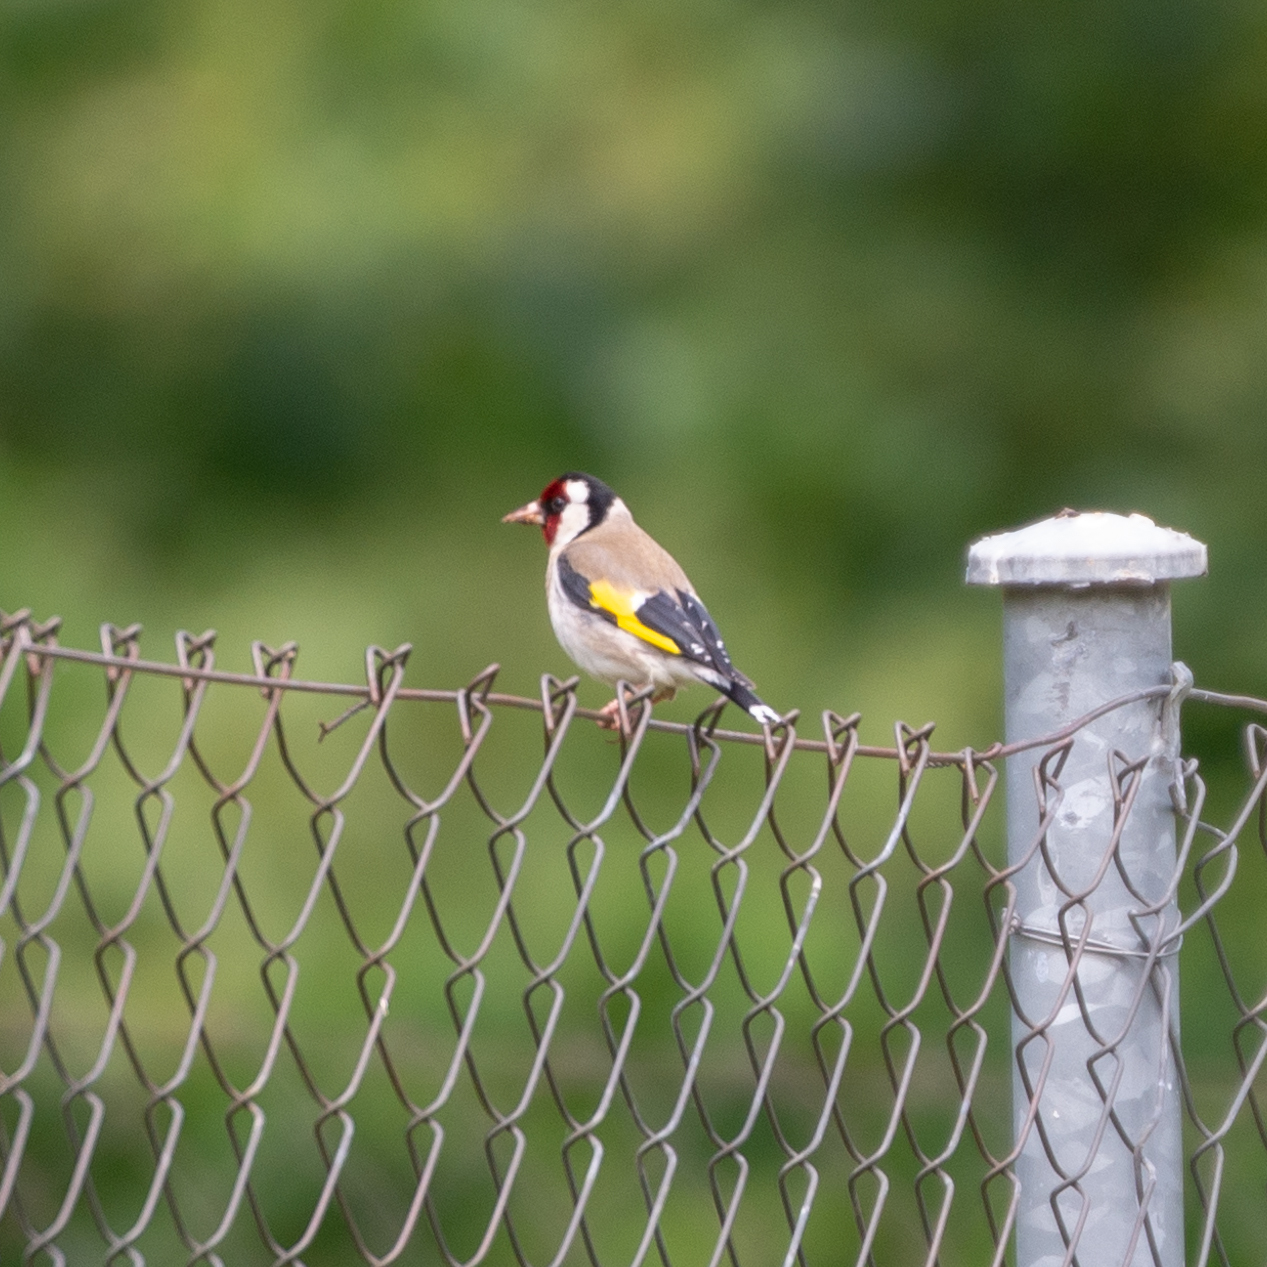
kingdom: Animalia
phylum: Chordata
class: Aves
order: Passeriformes
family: Fringillidae
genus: Carduelis
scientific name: Carduelis carduelis
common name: European goldfinch
